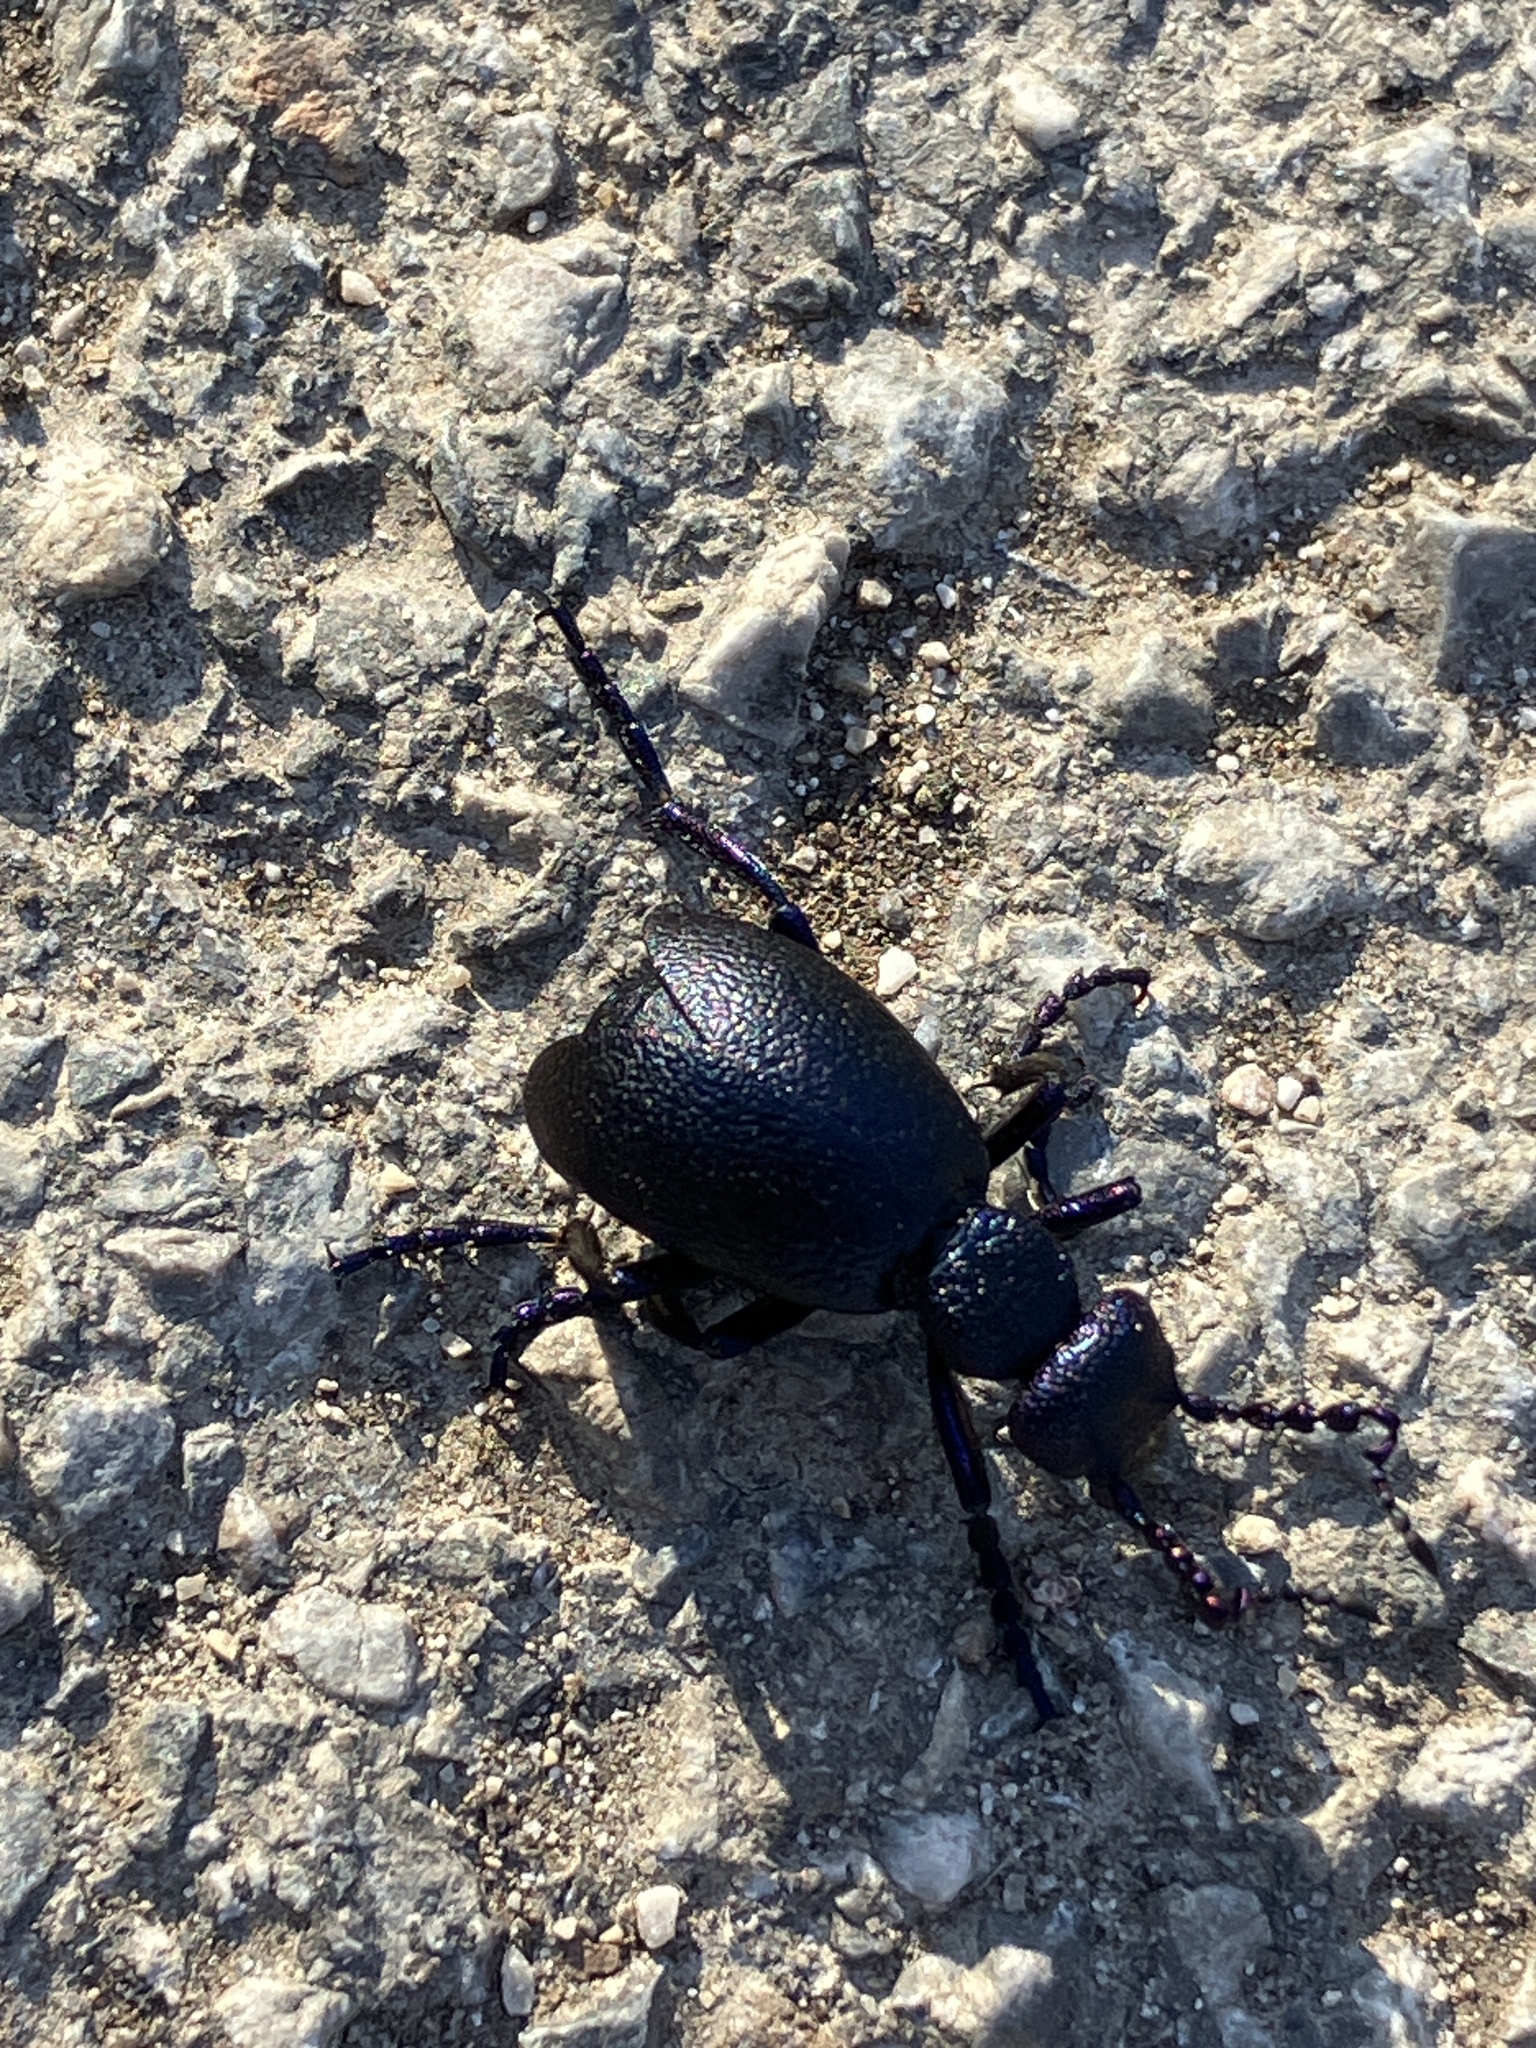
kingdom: Animalia
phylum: Arthropoda
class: Insecta
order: Coleoptera
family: Meloidae
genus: Meloe
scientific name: Meloe proscarabaeus
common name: Black oil-beetle
